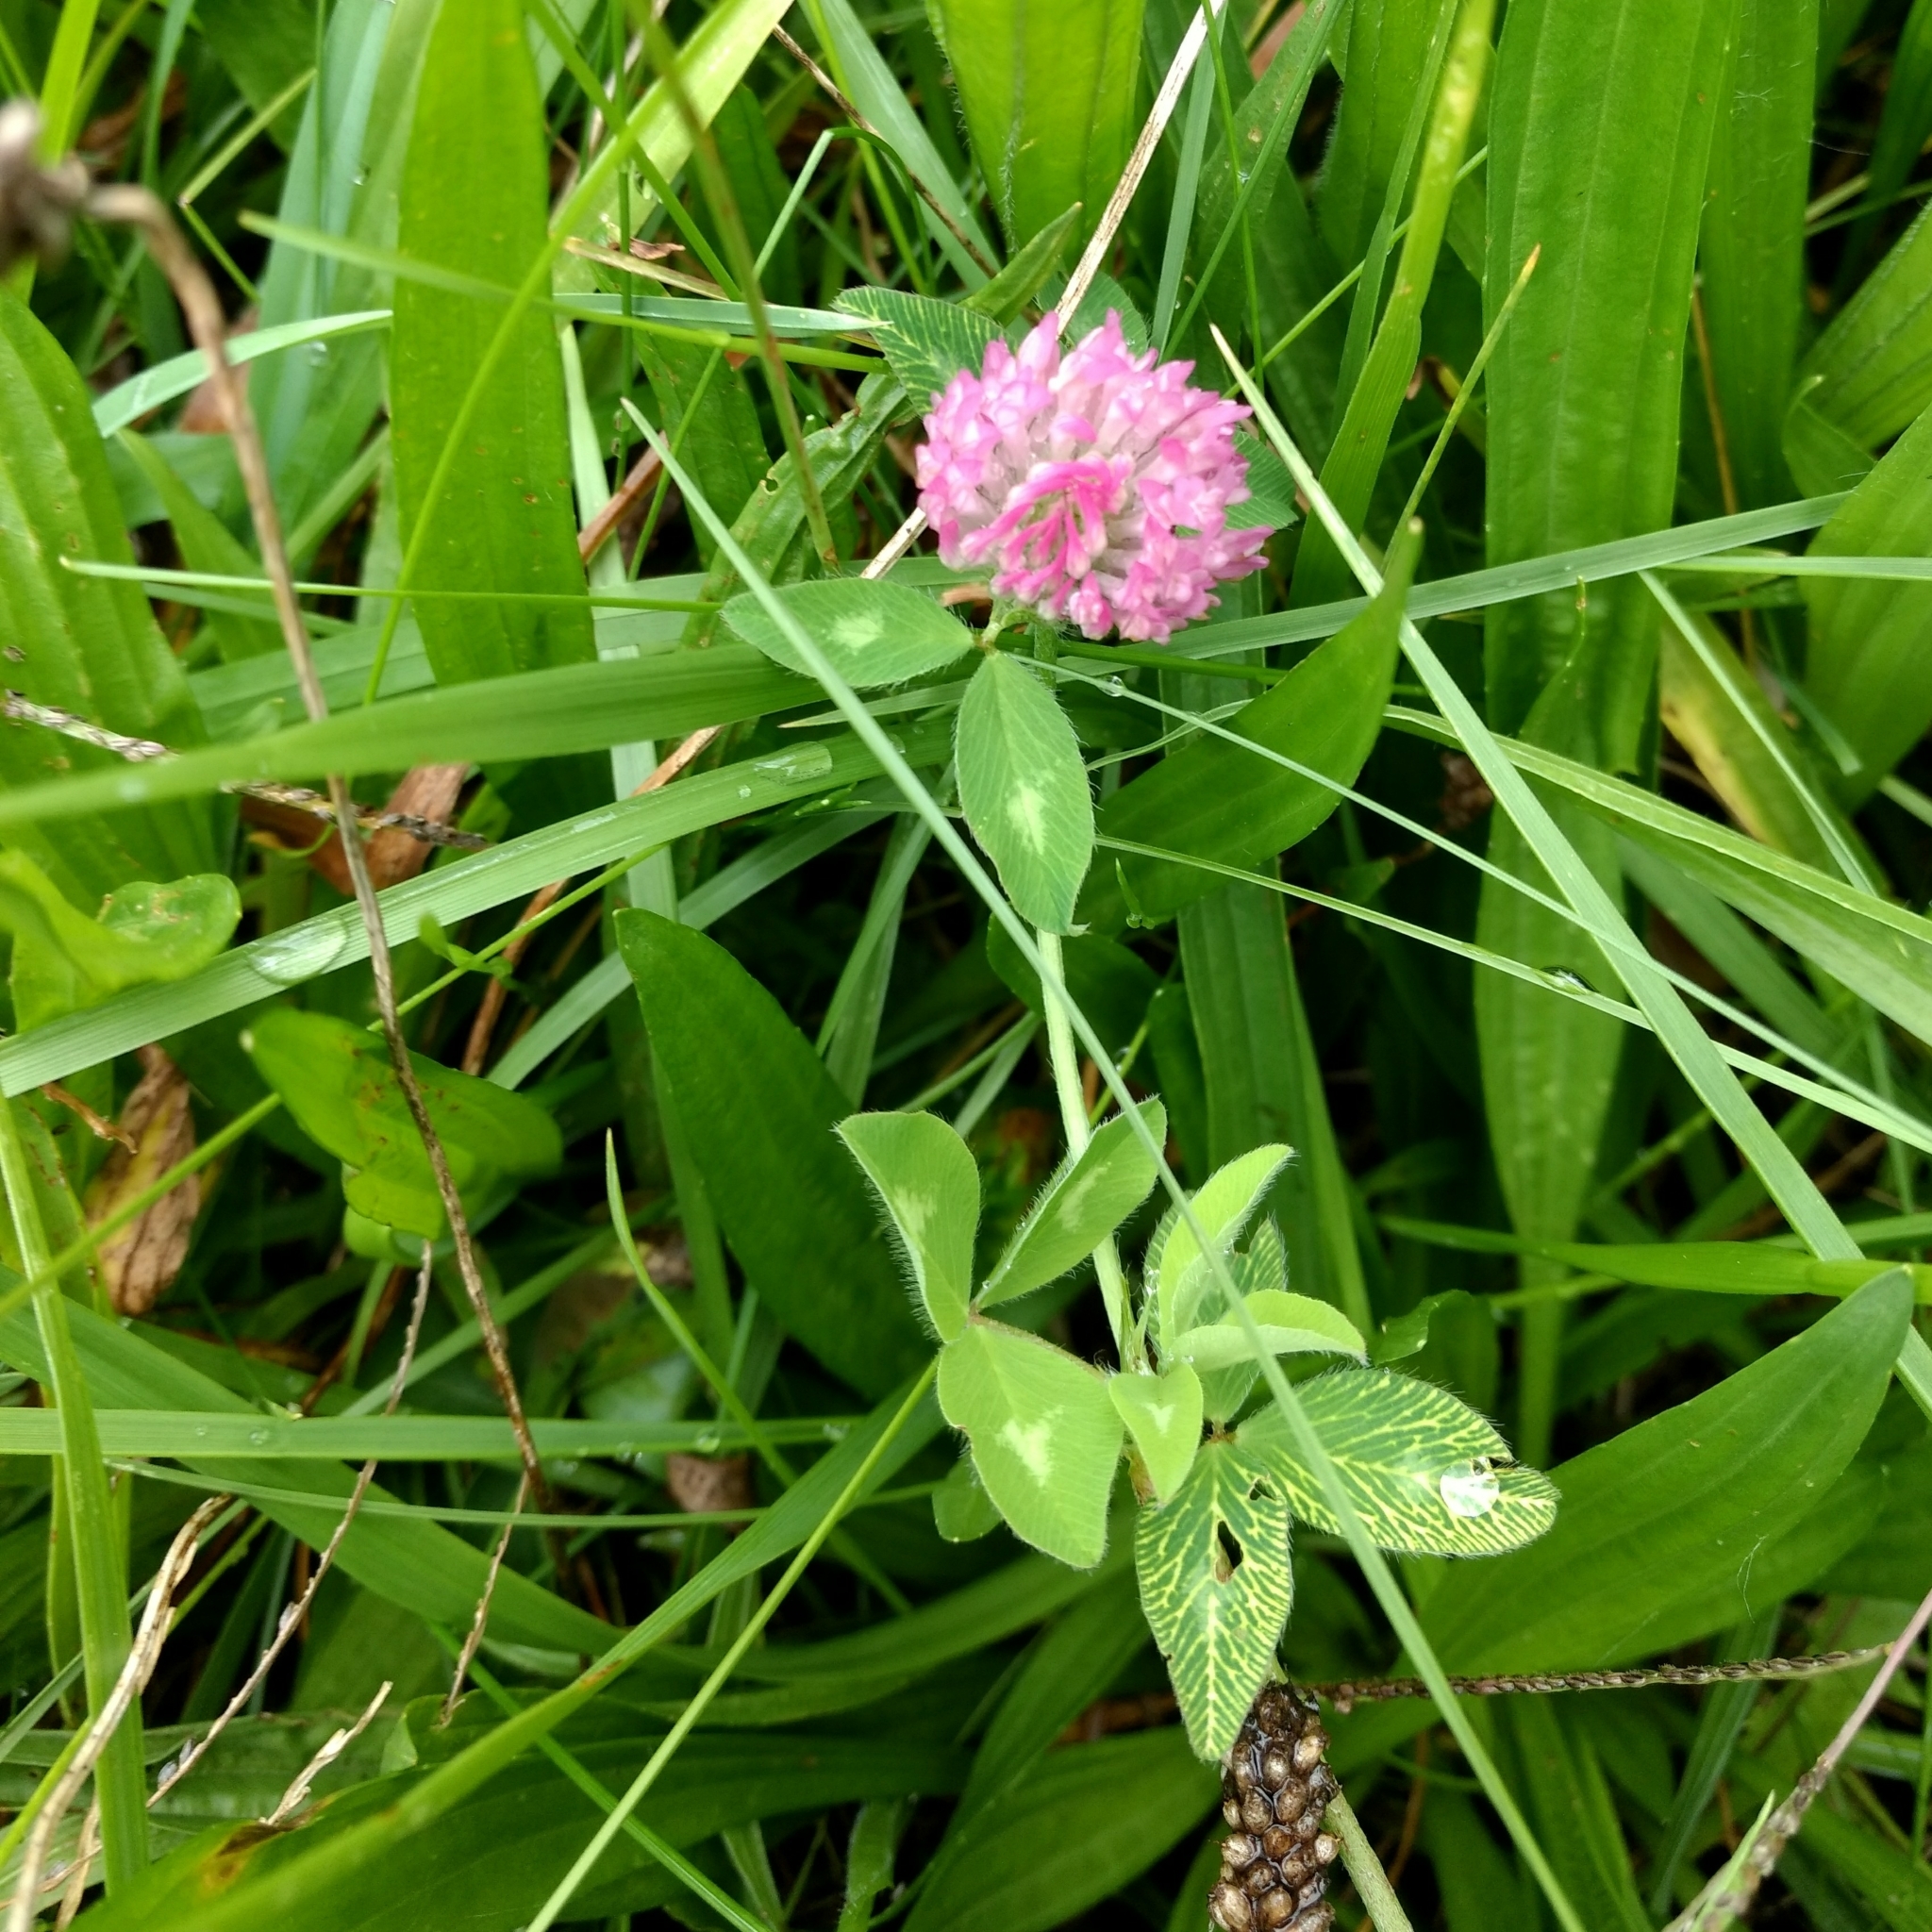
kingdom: Plantae
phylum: Tracheophyta
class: Magnoliopsida
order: Fabales
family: Fabaceae
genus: Trifolium
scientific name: Trifolium pratense
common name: Red clover
